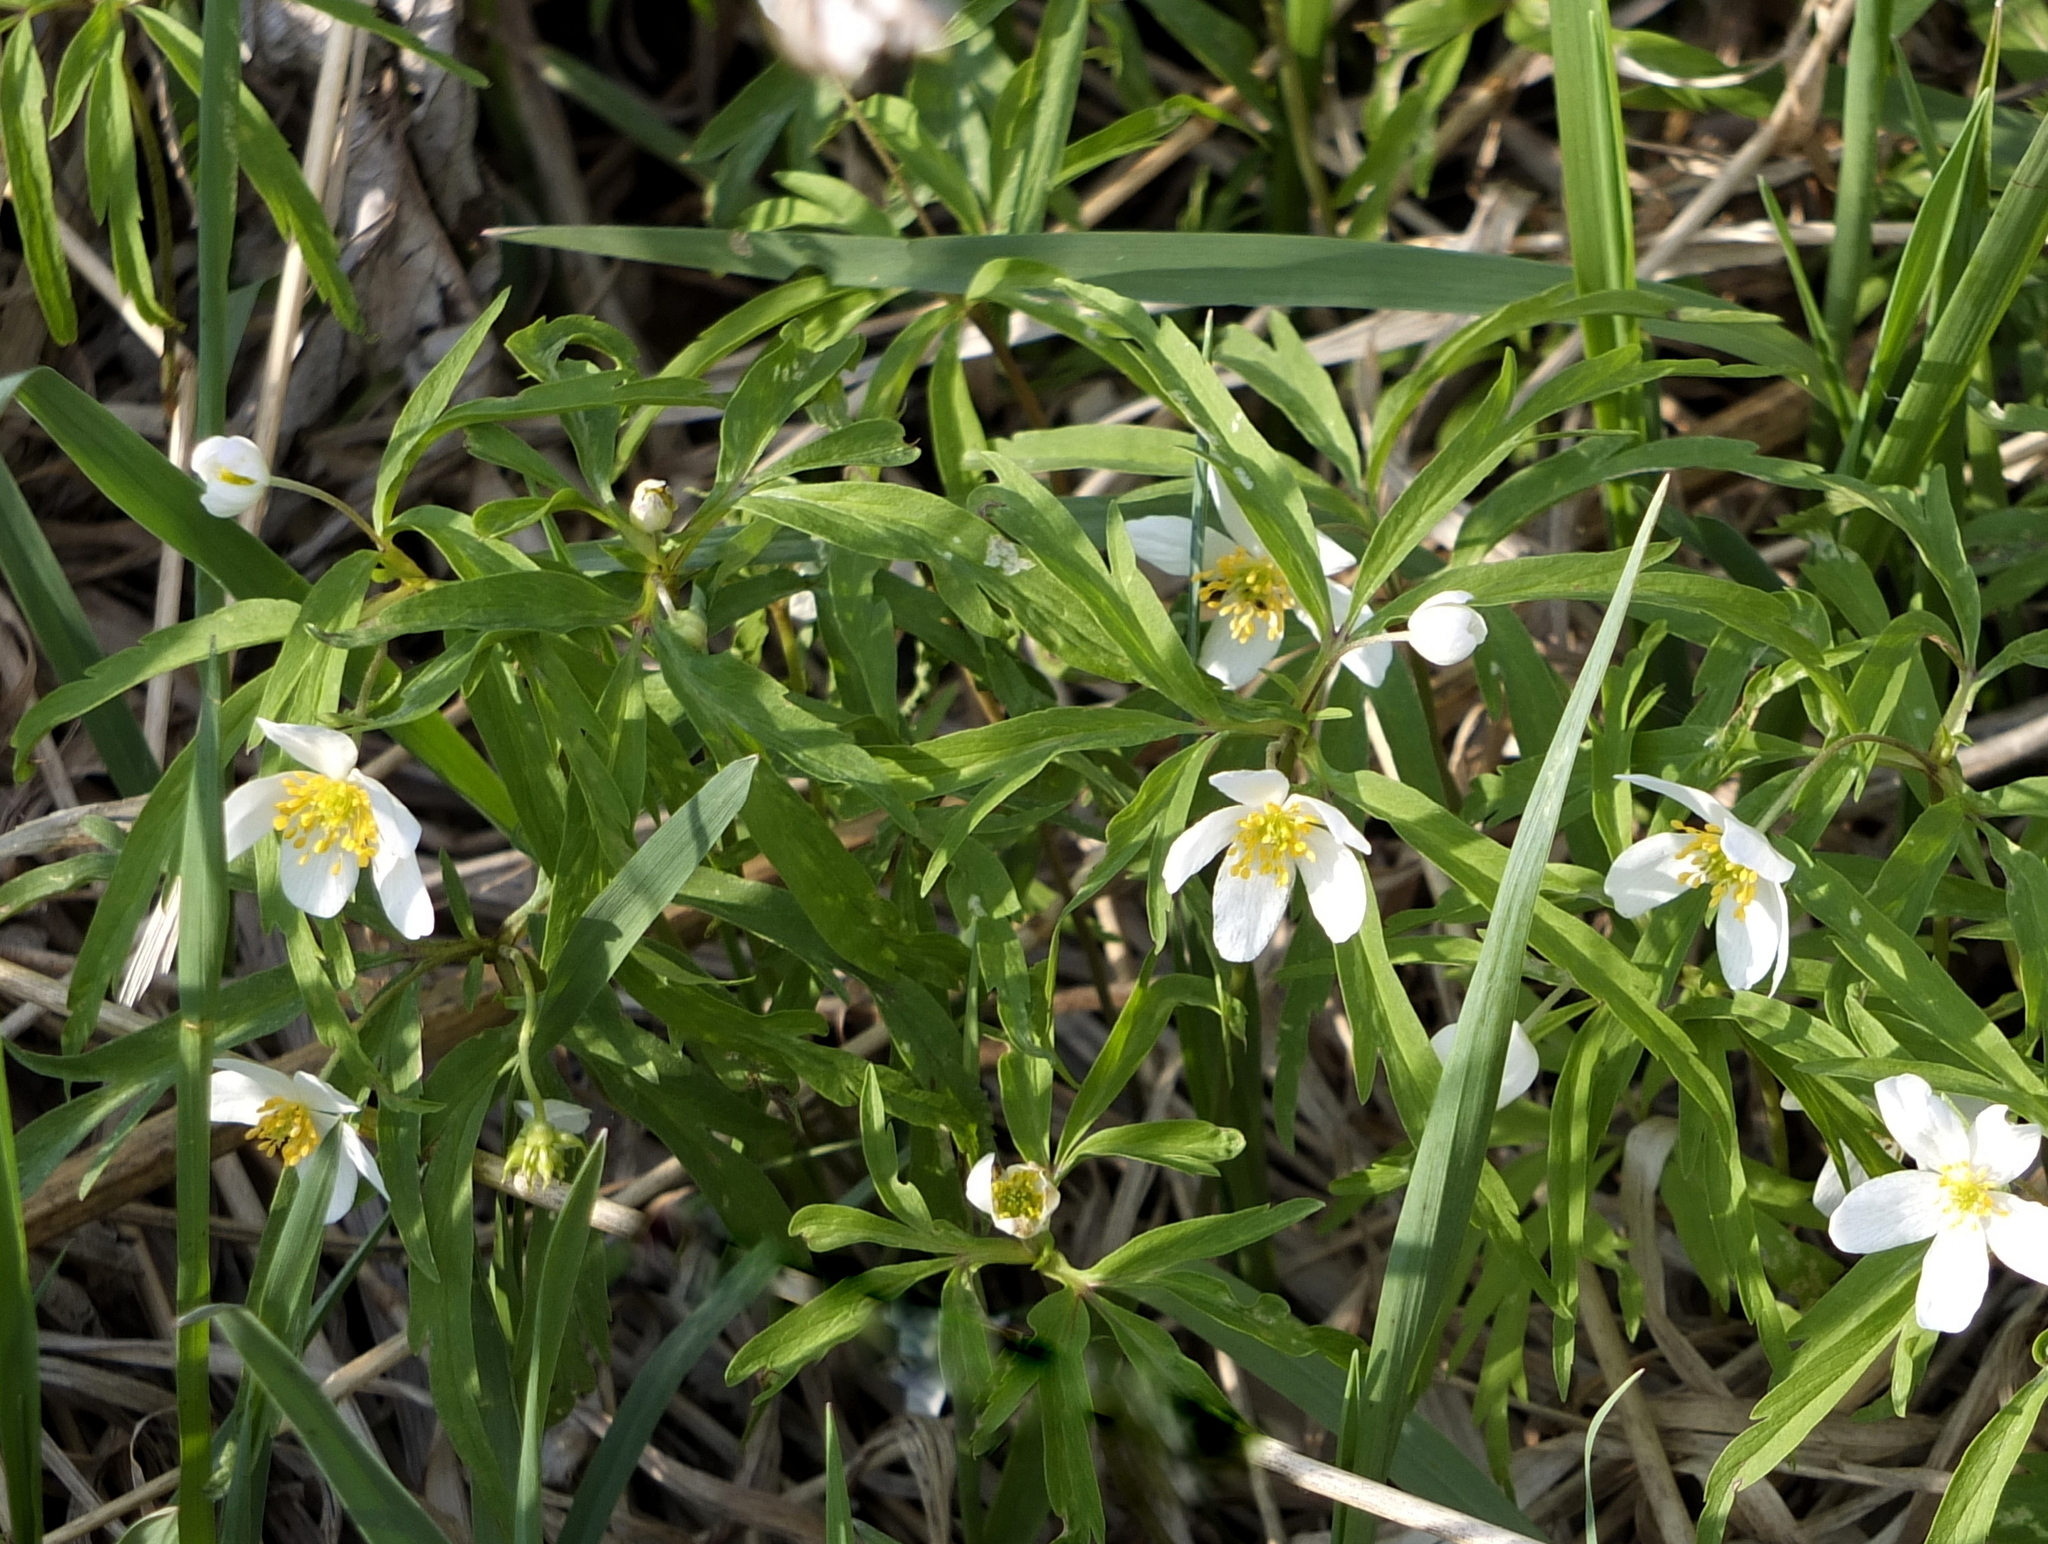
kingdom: Plantae
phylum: Tracheophyta
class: Magnoliopsida
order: Ranunculales
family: Ranunculaceae
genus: Anemone
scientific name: Anemone caerulea
